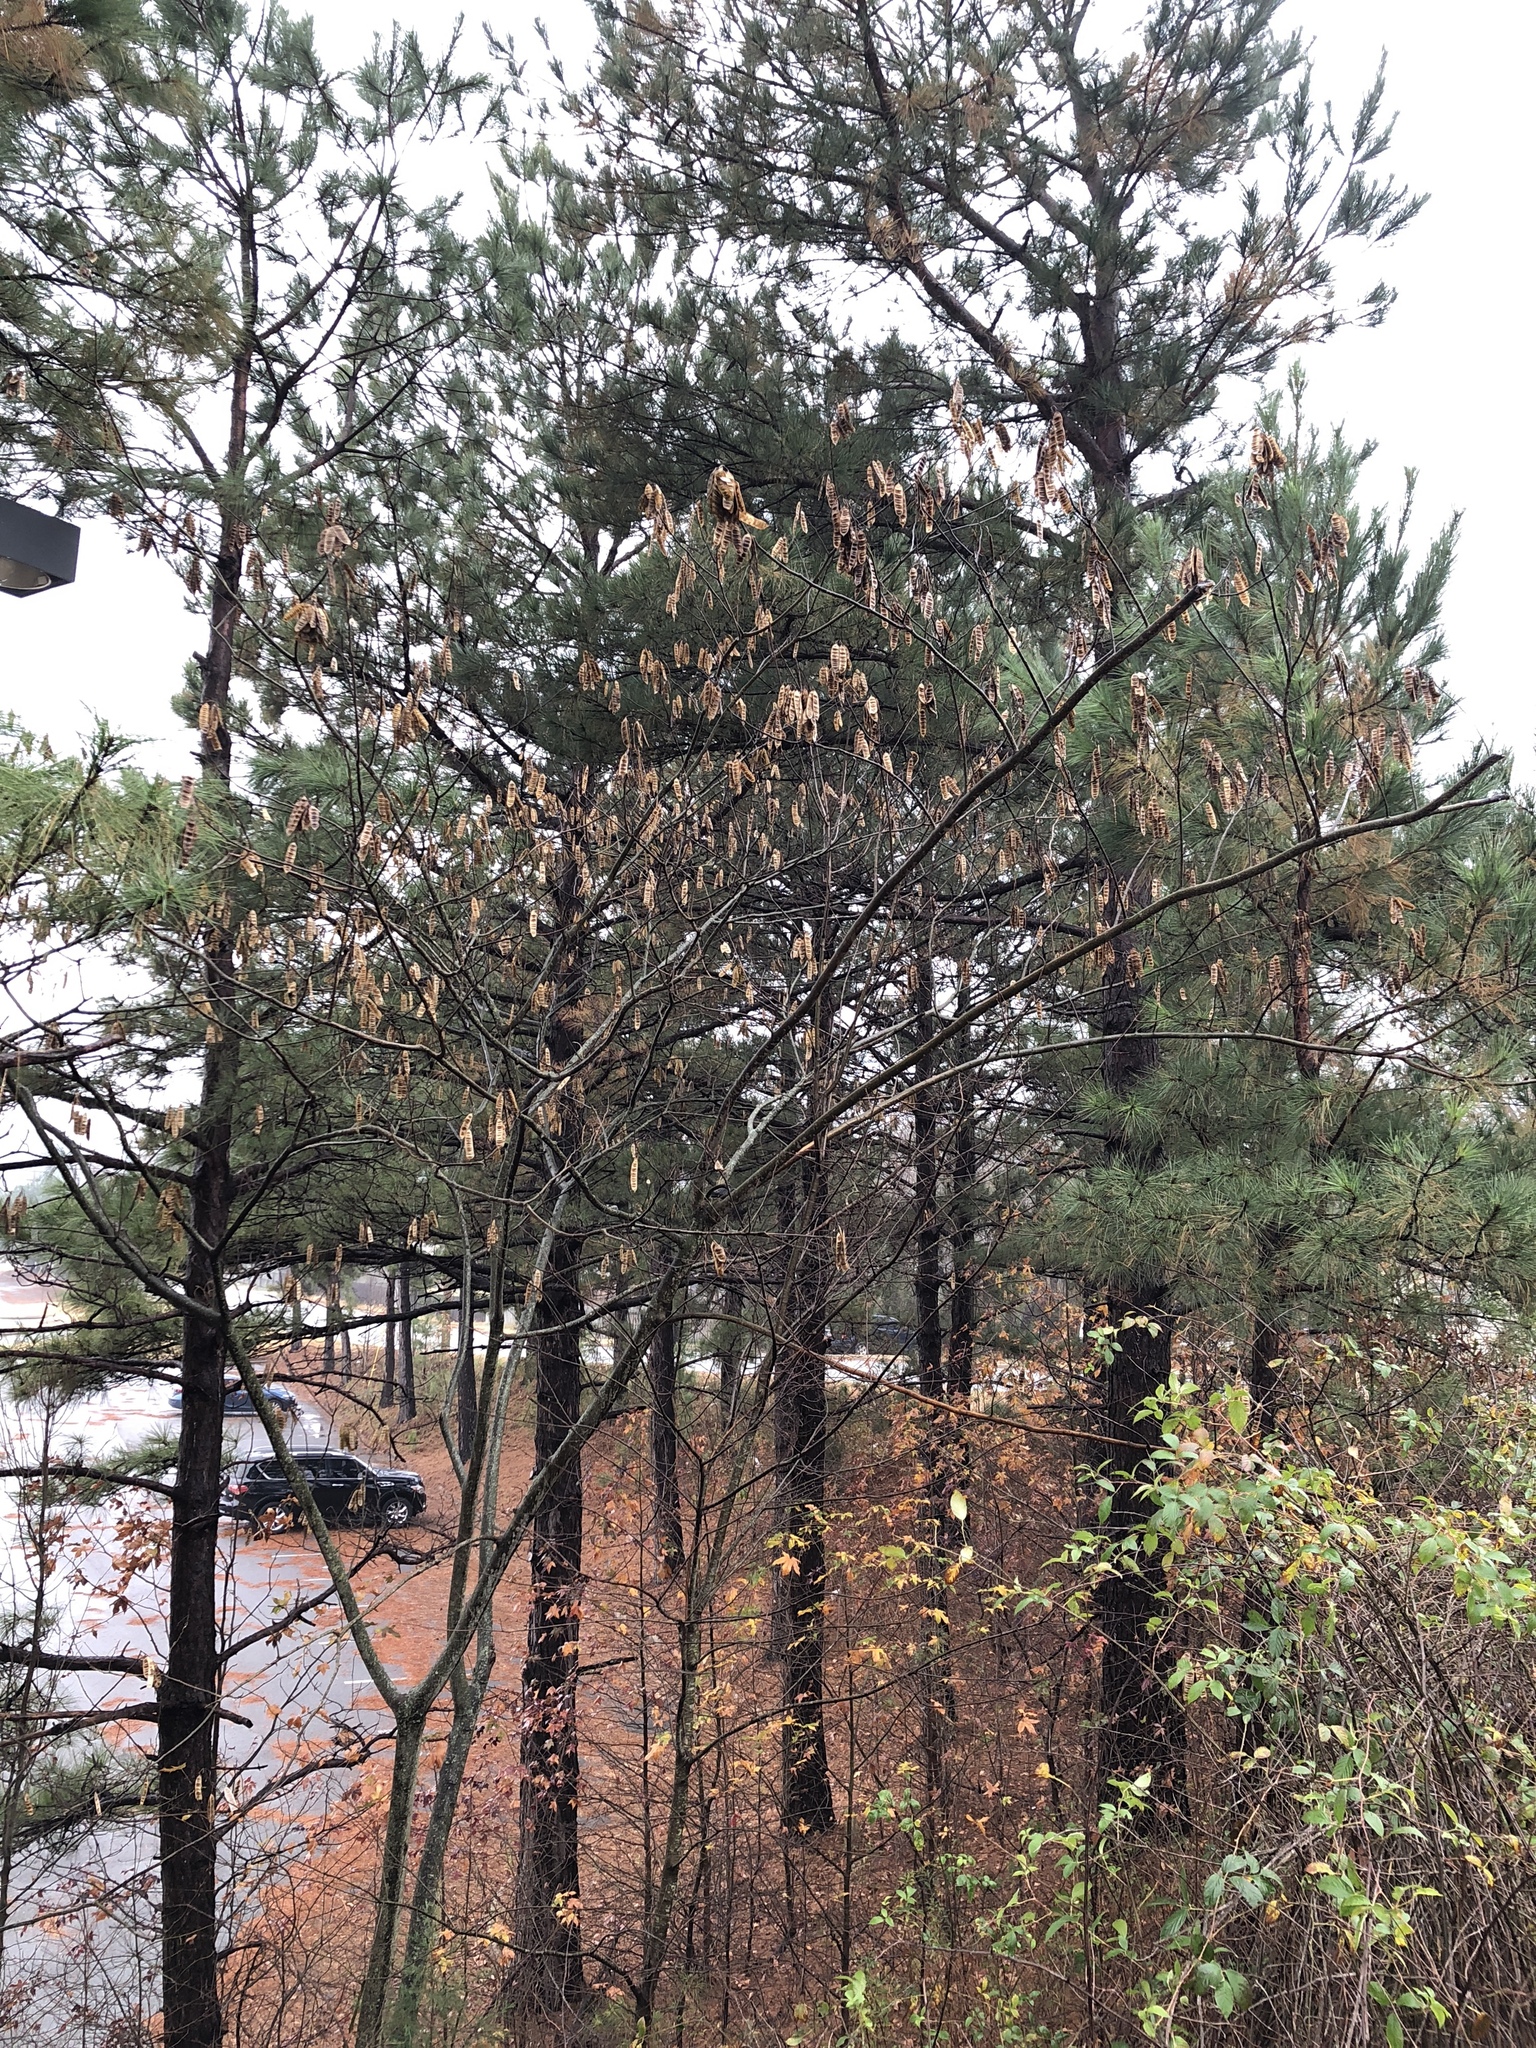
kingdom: Plantae
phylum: Tracheophyta
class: Magnoliopsida
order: Fabales
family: Fabaceae
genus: Albizia
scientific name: Albizia julibrissin
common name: Silktree
